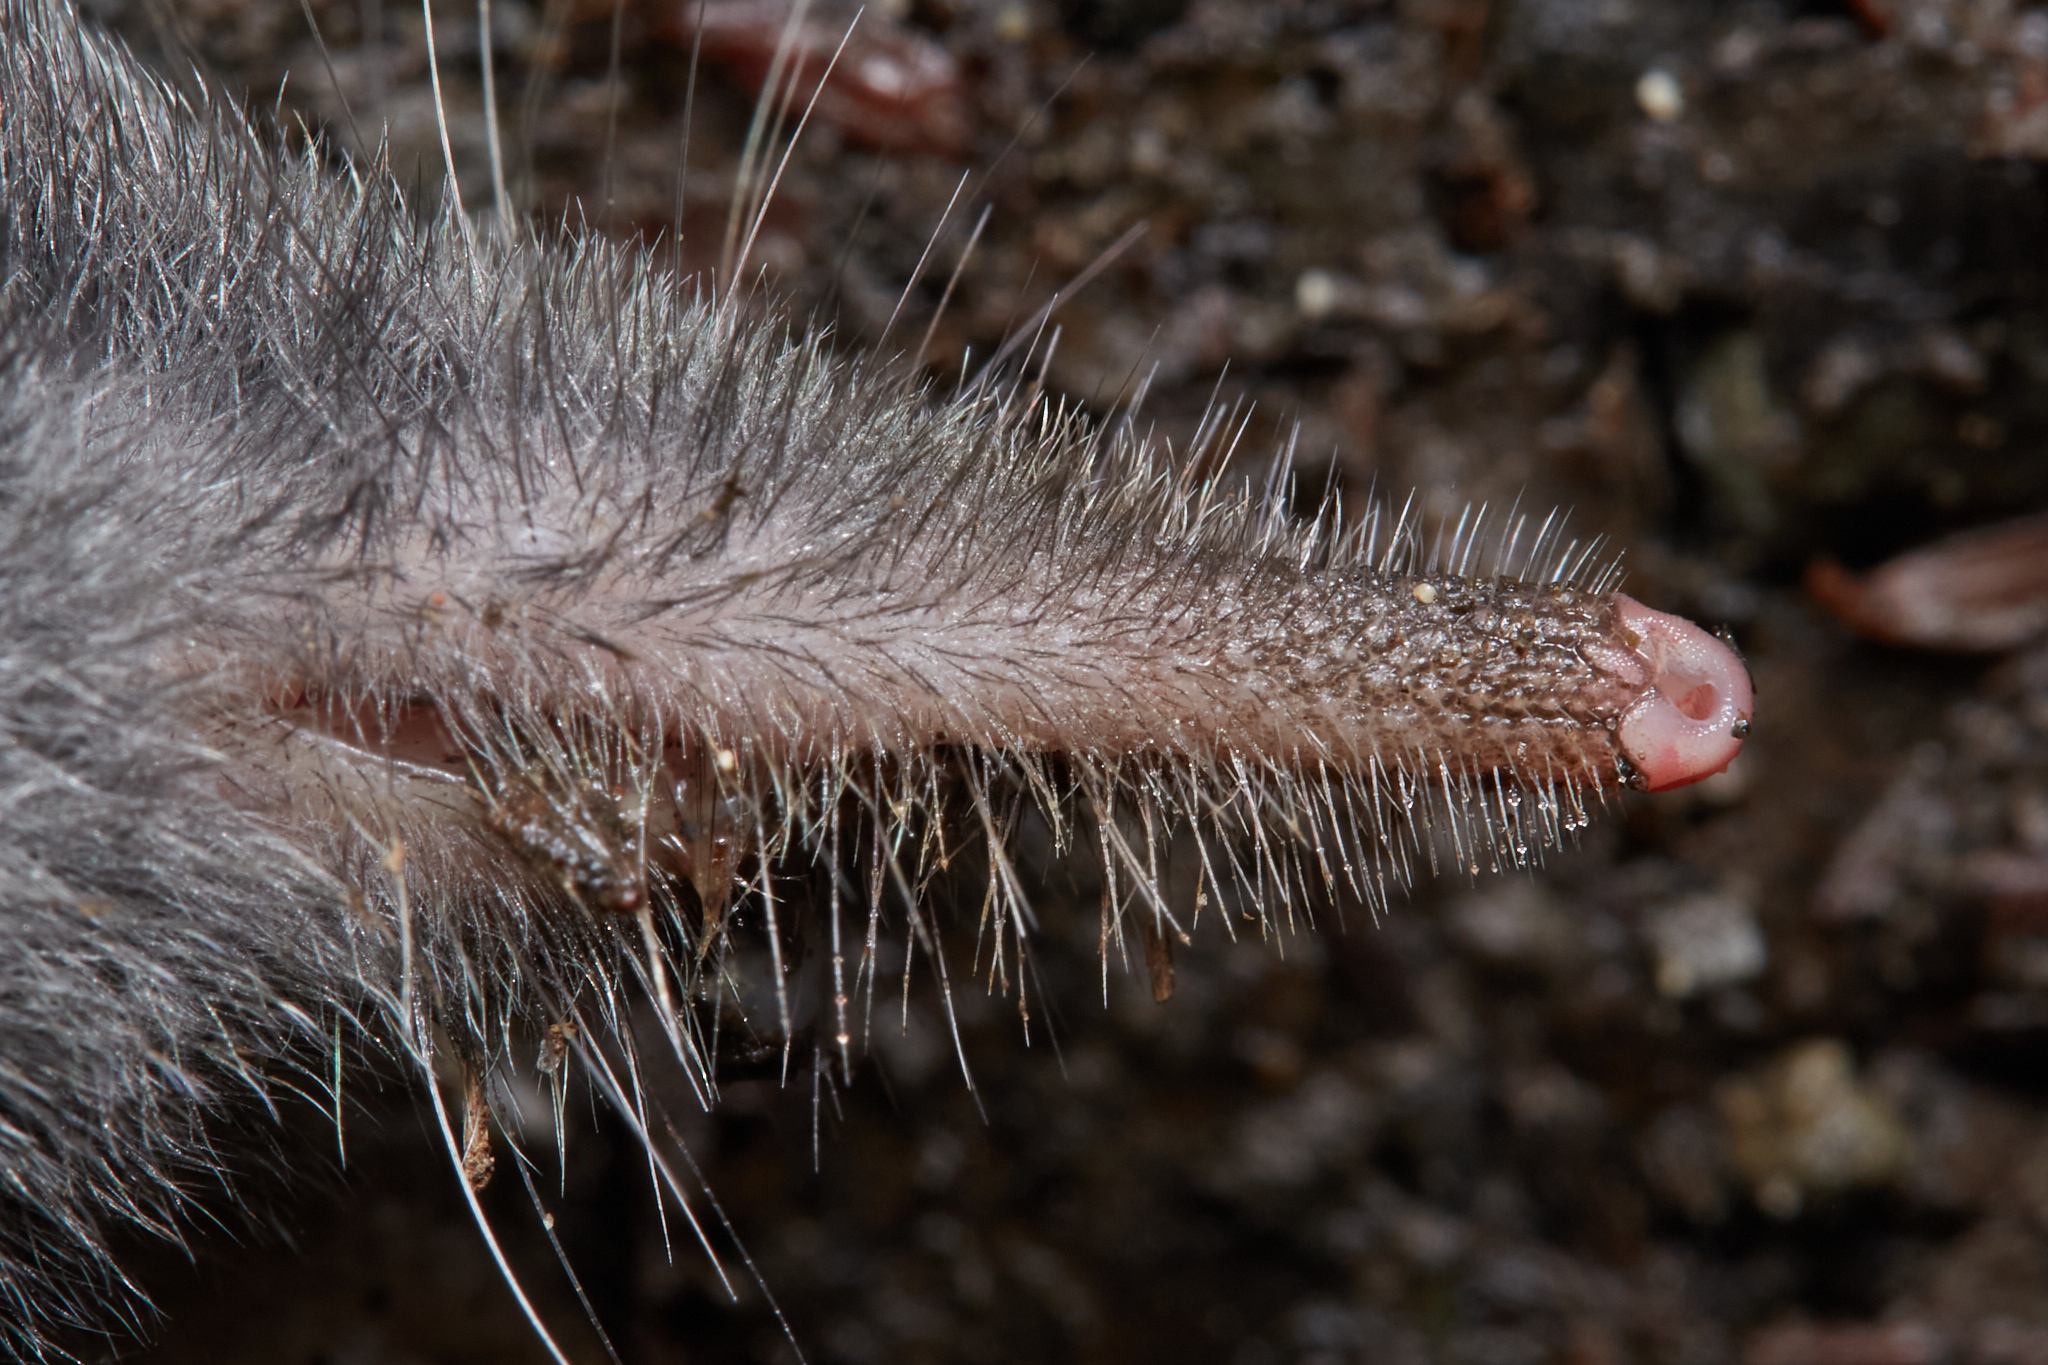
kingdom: Animalia
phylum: Chordata
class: Mammalia
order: Soricomorpha
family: Talpidae
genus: Neurotrichus
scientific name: Neurotrichus gibbsii
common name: American shrew mole
